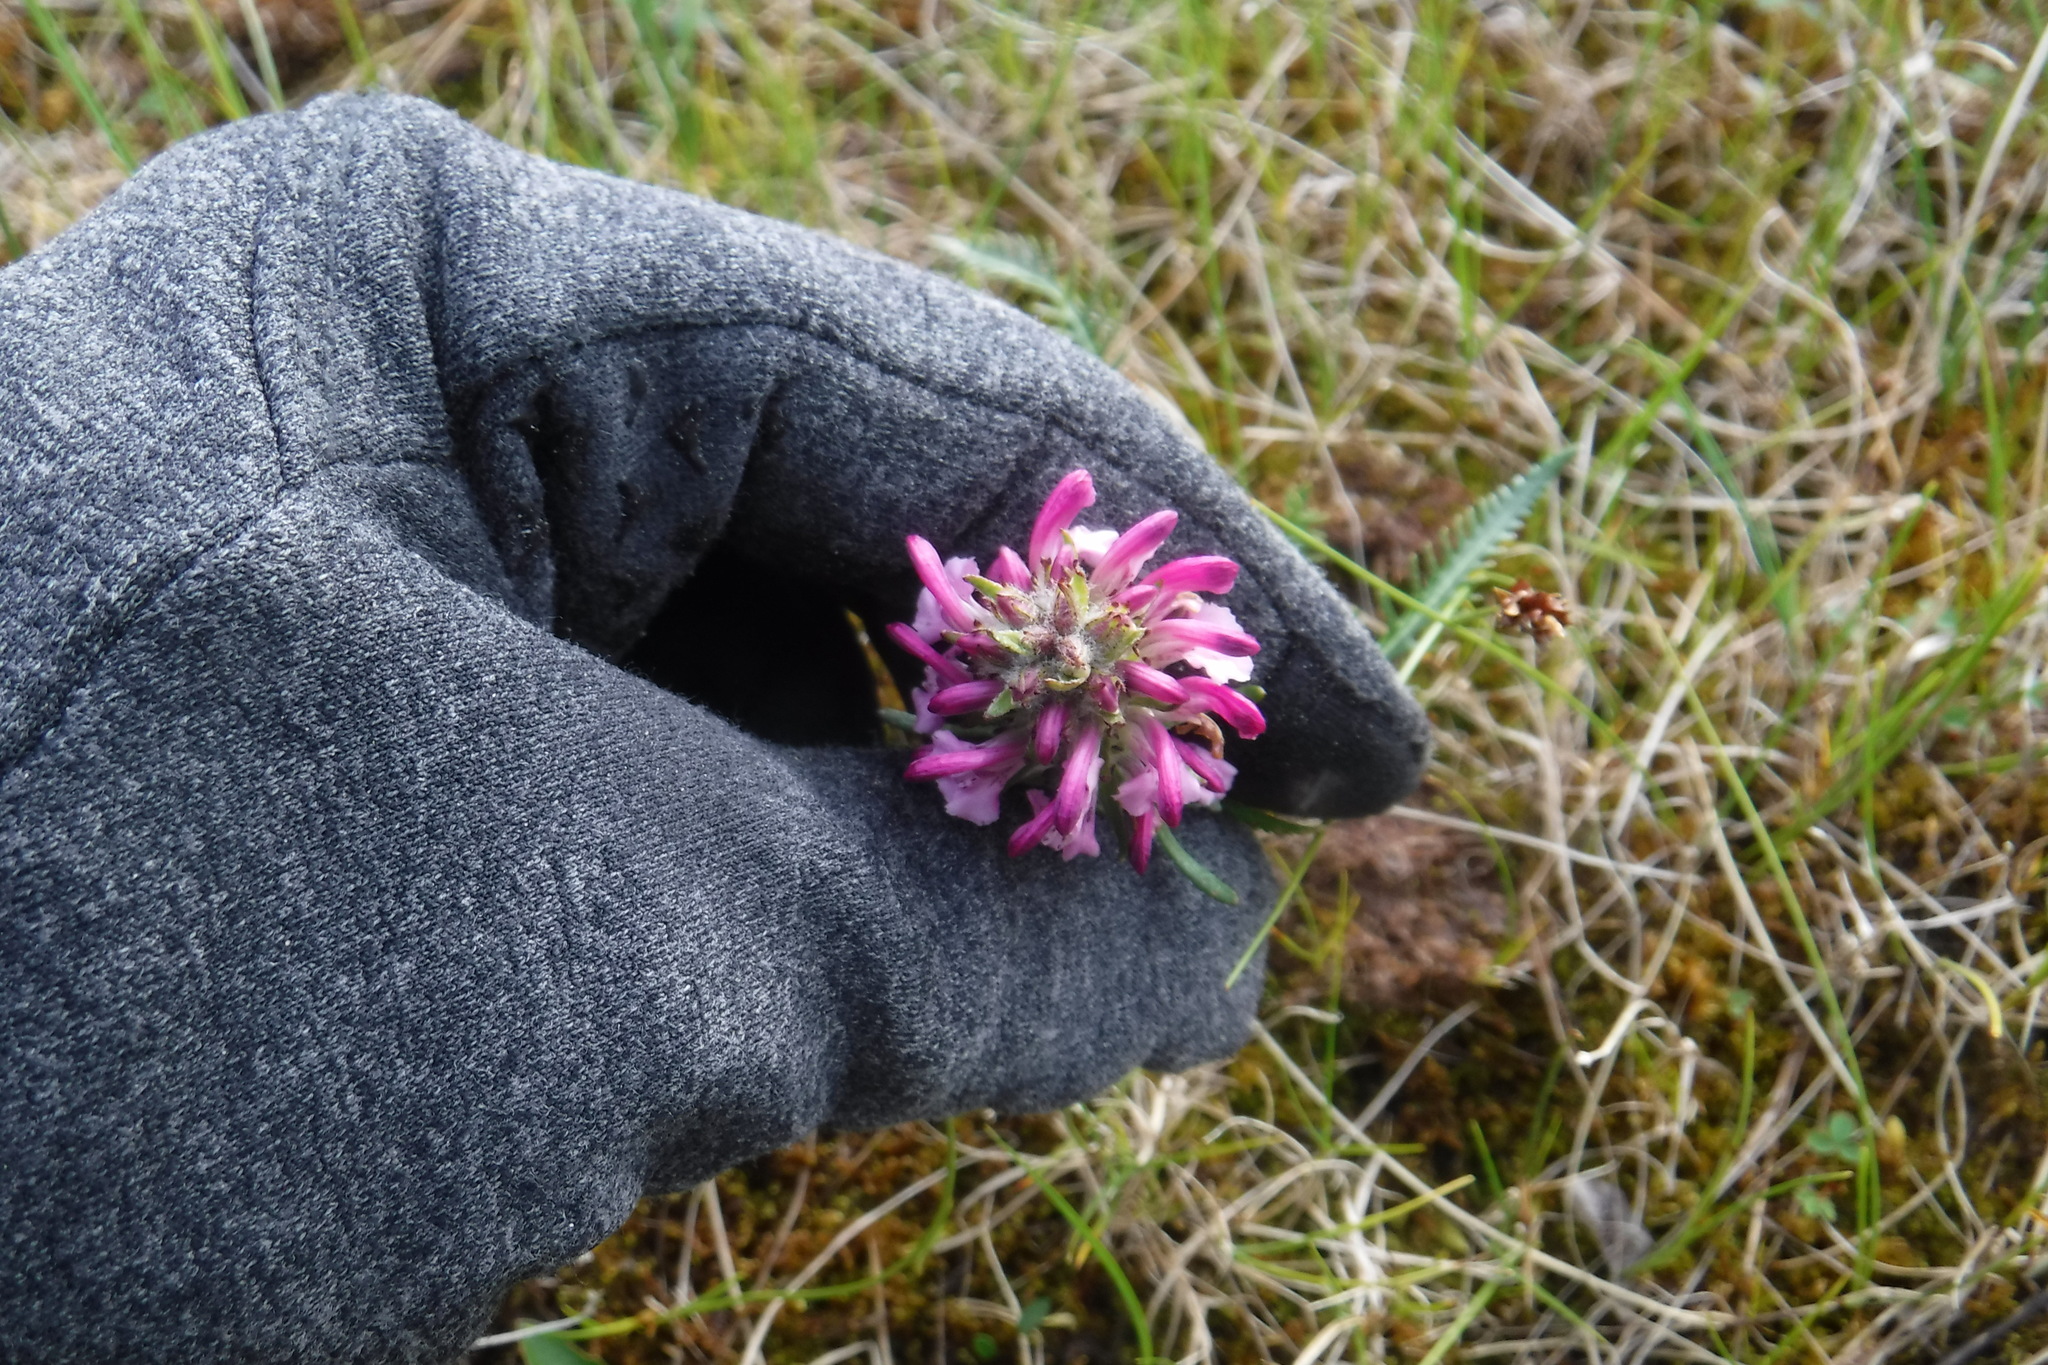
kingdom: Plantae
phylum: Tracheophyta
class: Magnoliopsida
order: Lamiales
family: Orobanchaceae
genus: Pedicularis
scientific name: Pedicularis novaiae-zemliae
